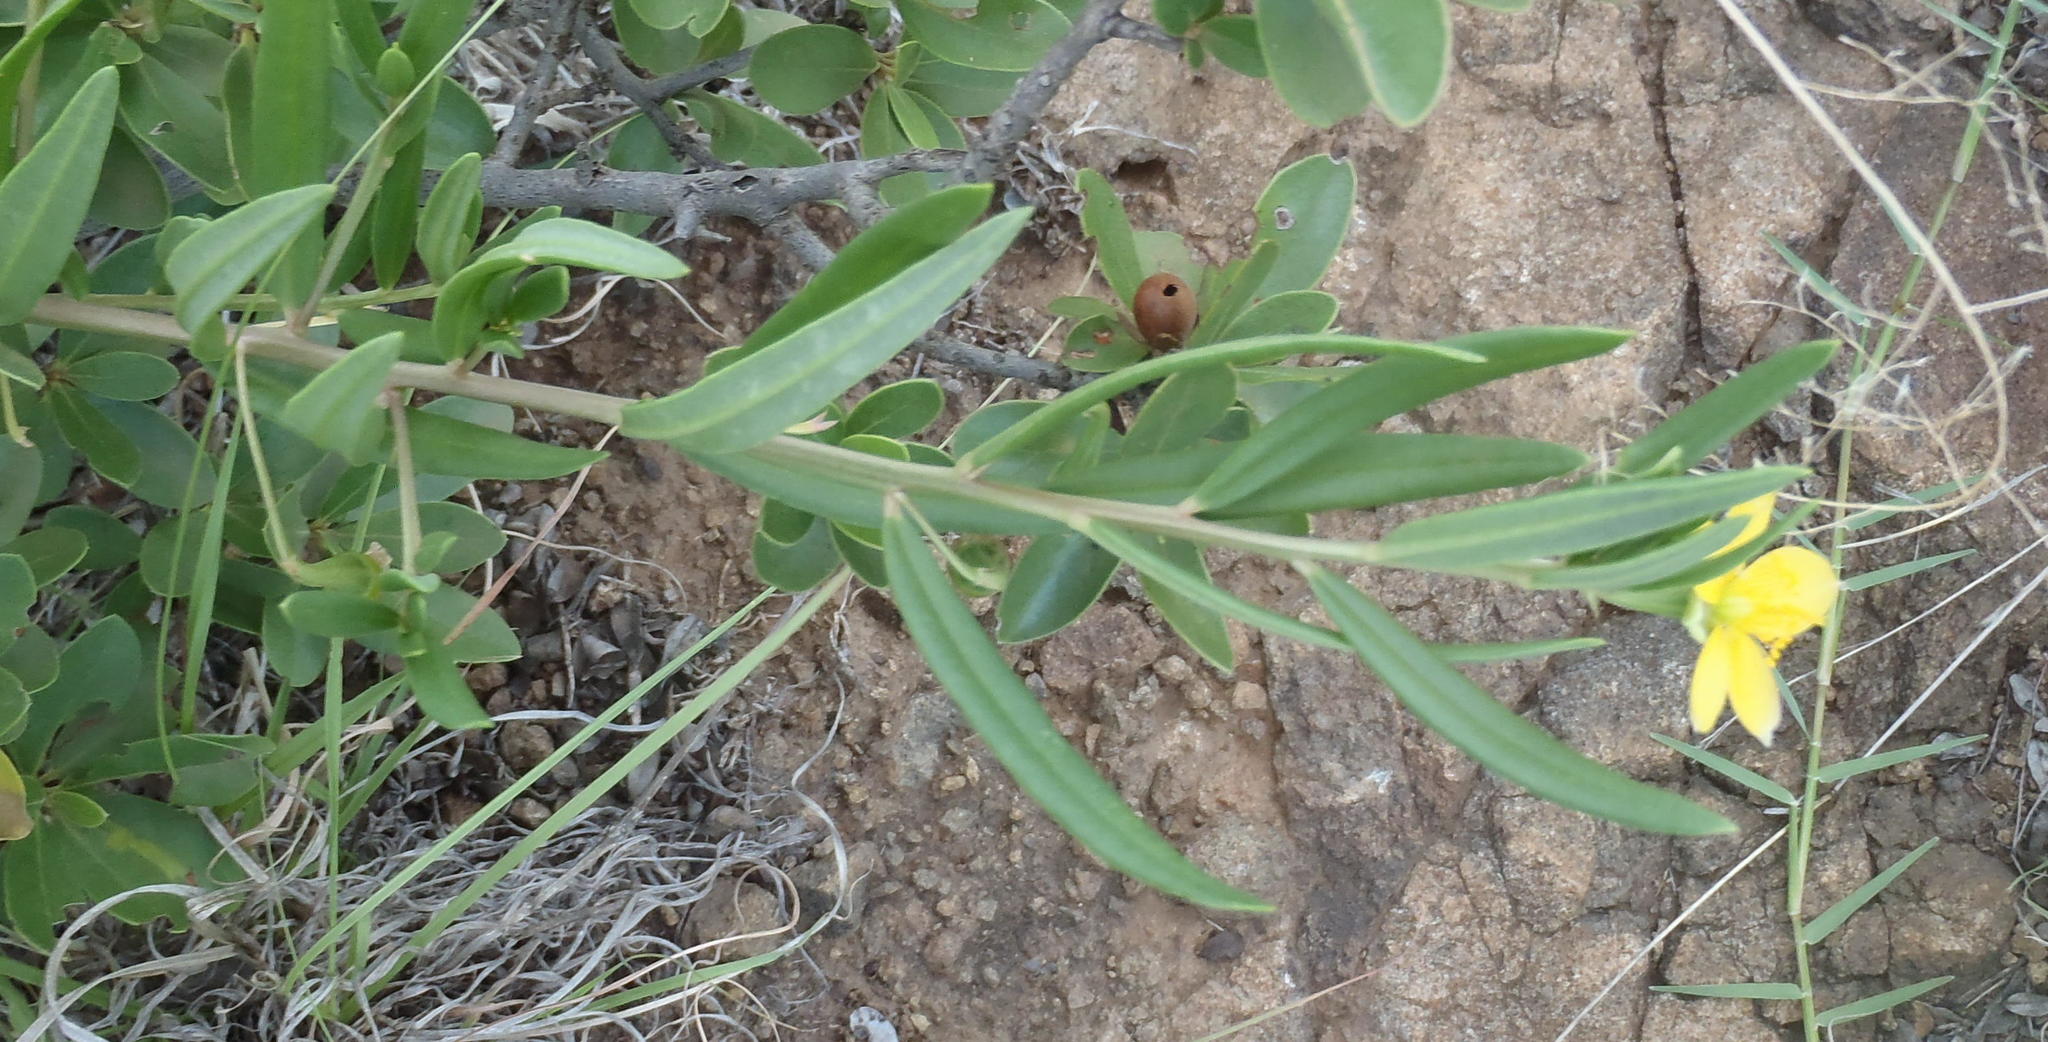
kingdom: Plantae
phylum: Tracheophyta
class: Magnoliopsida
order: Caryophyllales
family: Talinaceae
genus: Talinum
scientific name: Talinum caffrum
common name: Flameflower
